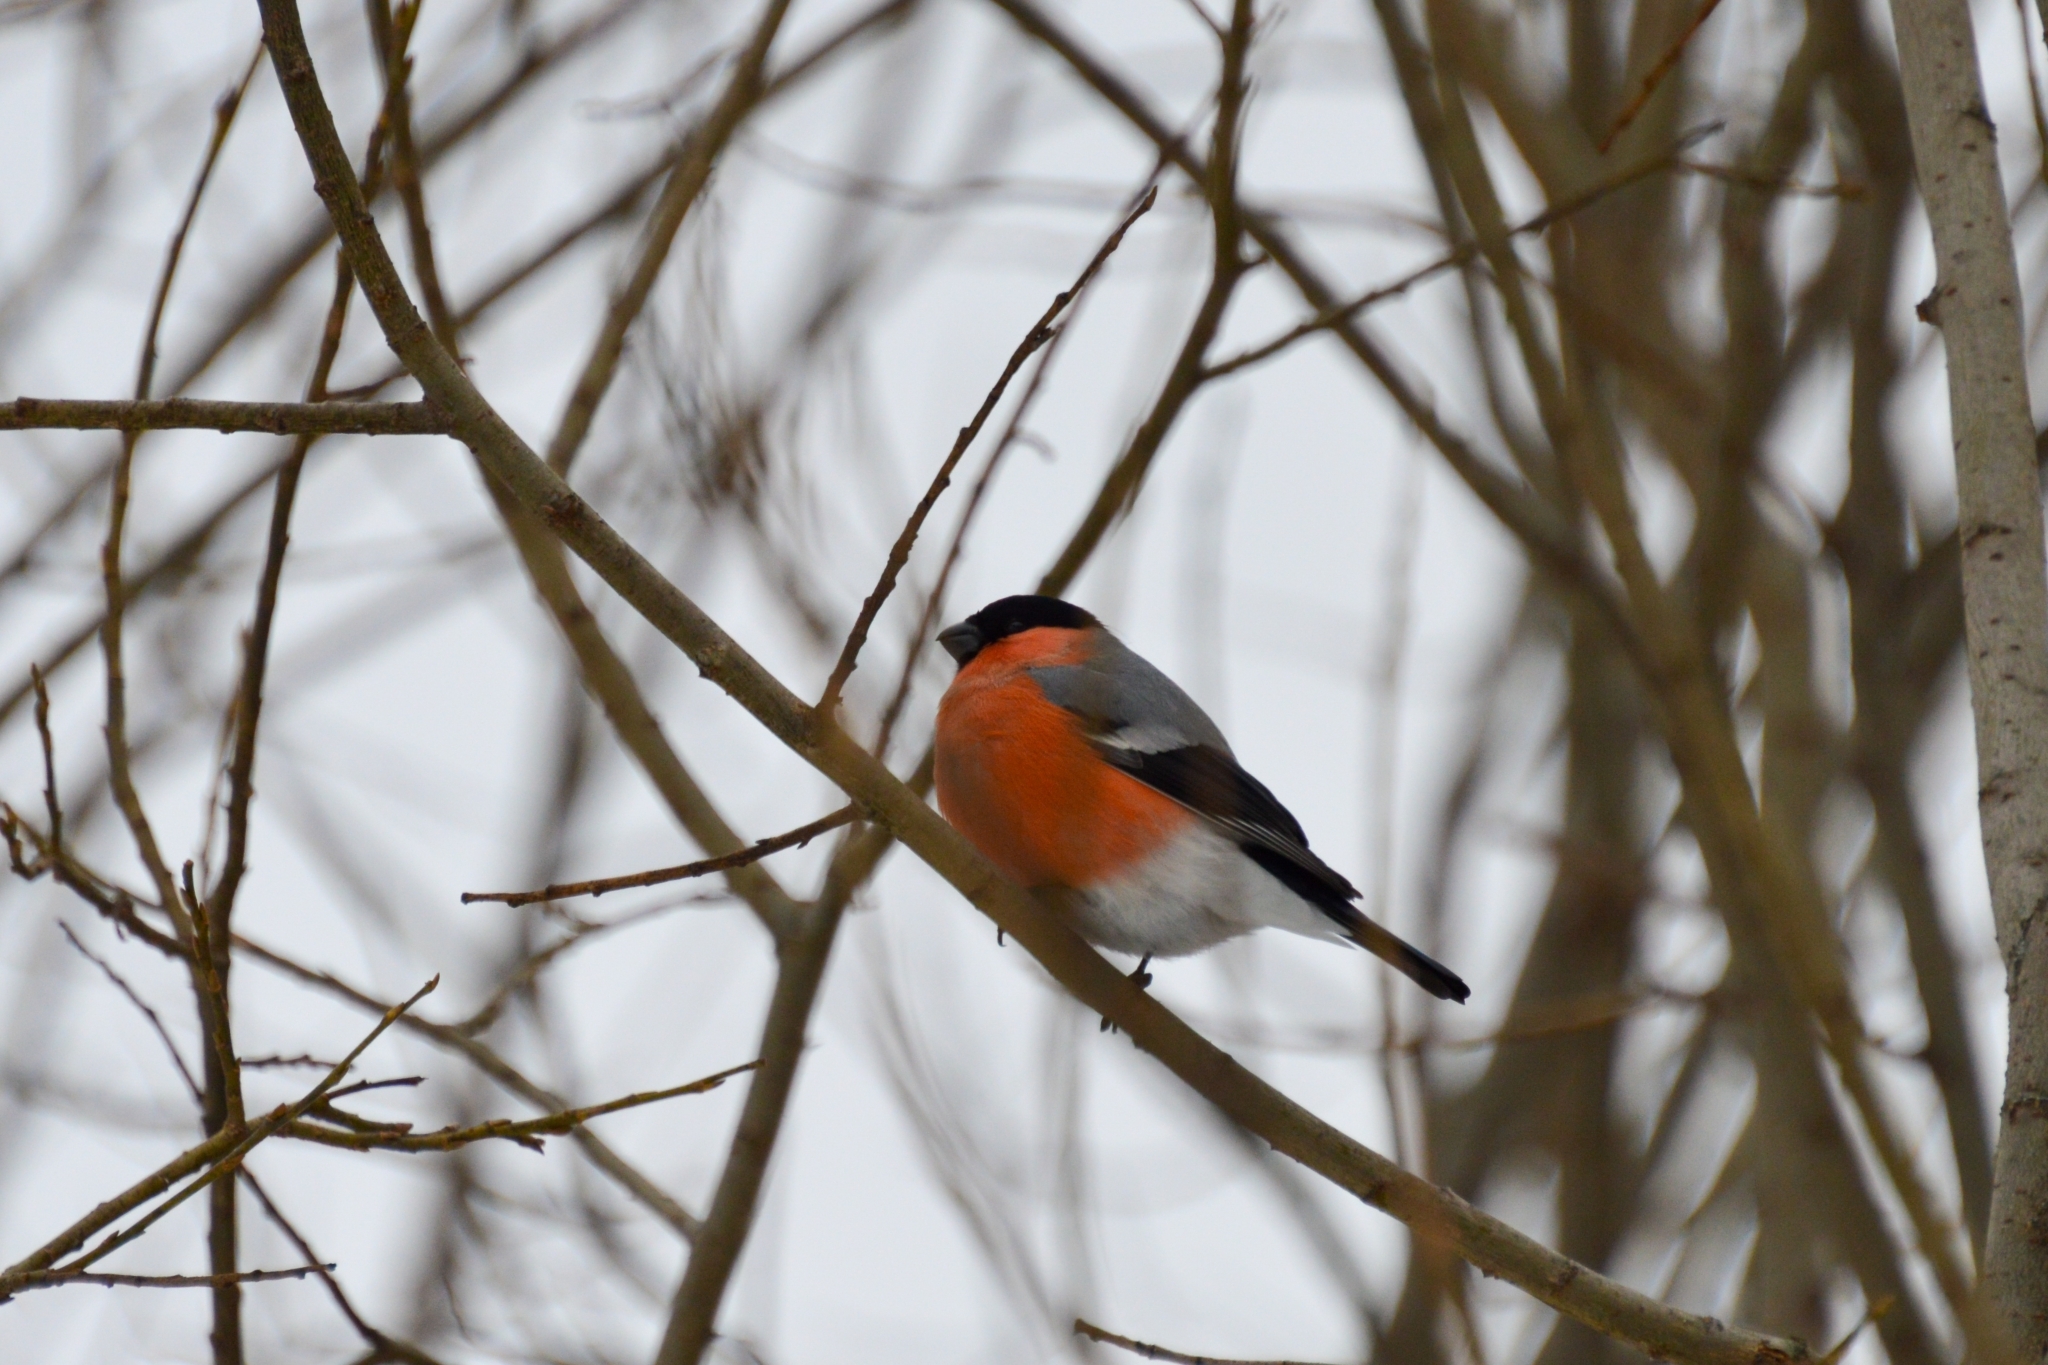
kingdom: Animalia
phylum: Chordata
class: Aves
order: Passeriformes
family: Fringillidae
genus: Pyrrhula
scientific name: Pyrrhula pyrrhula
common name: Eurasian bullfinch
